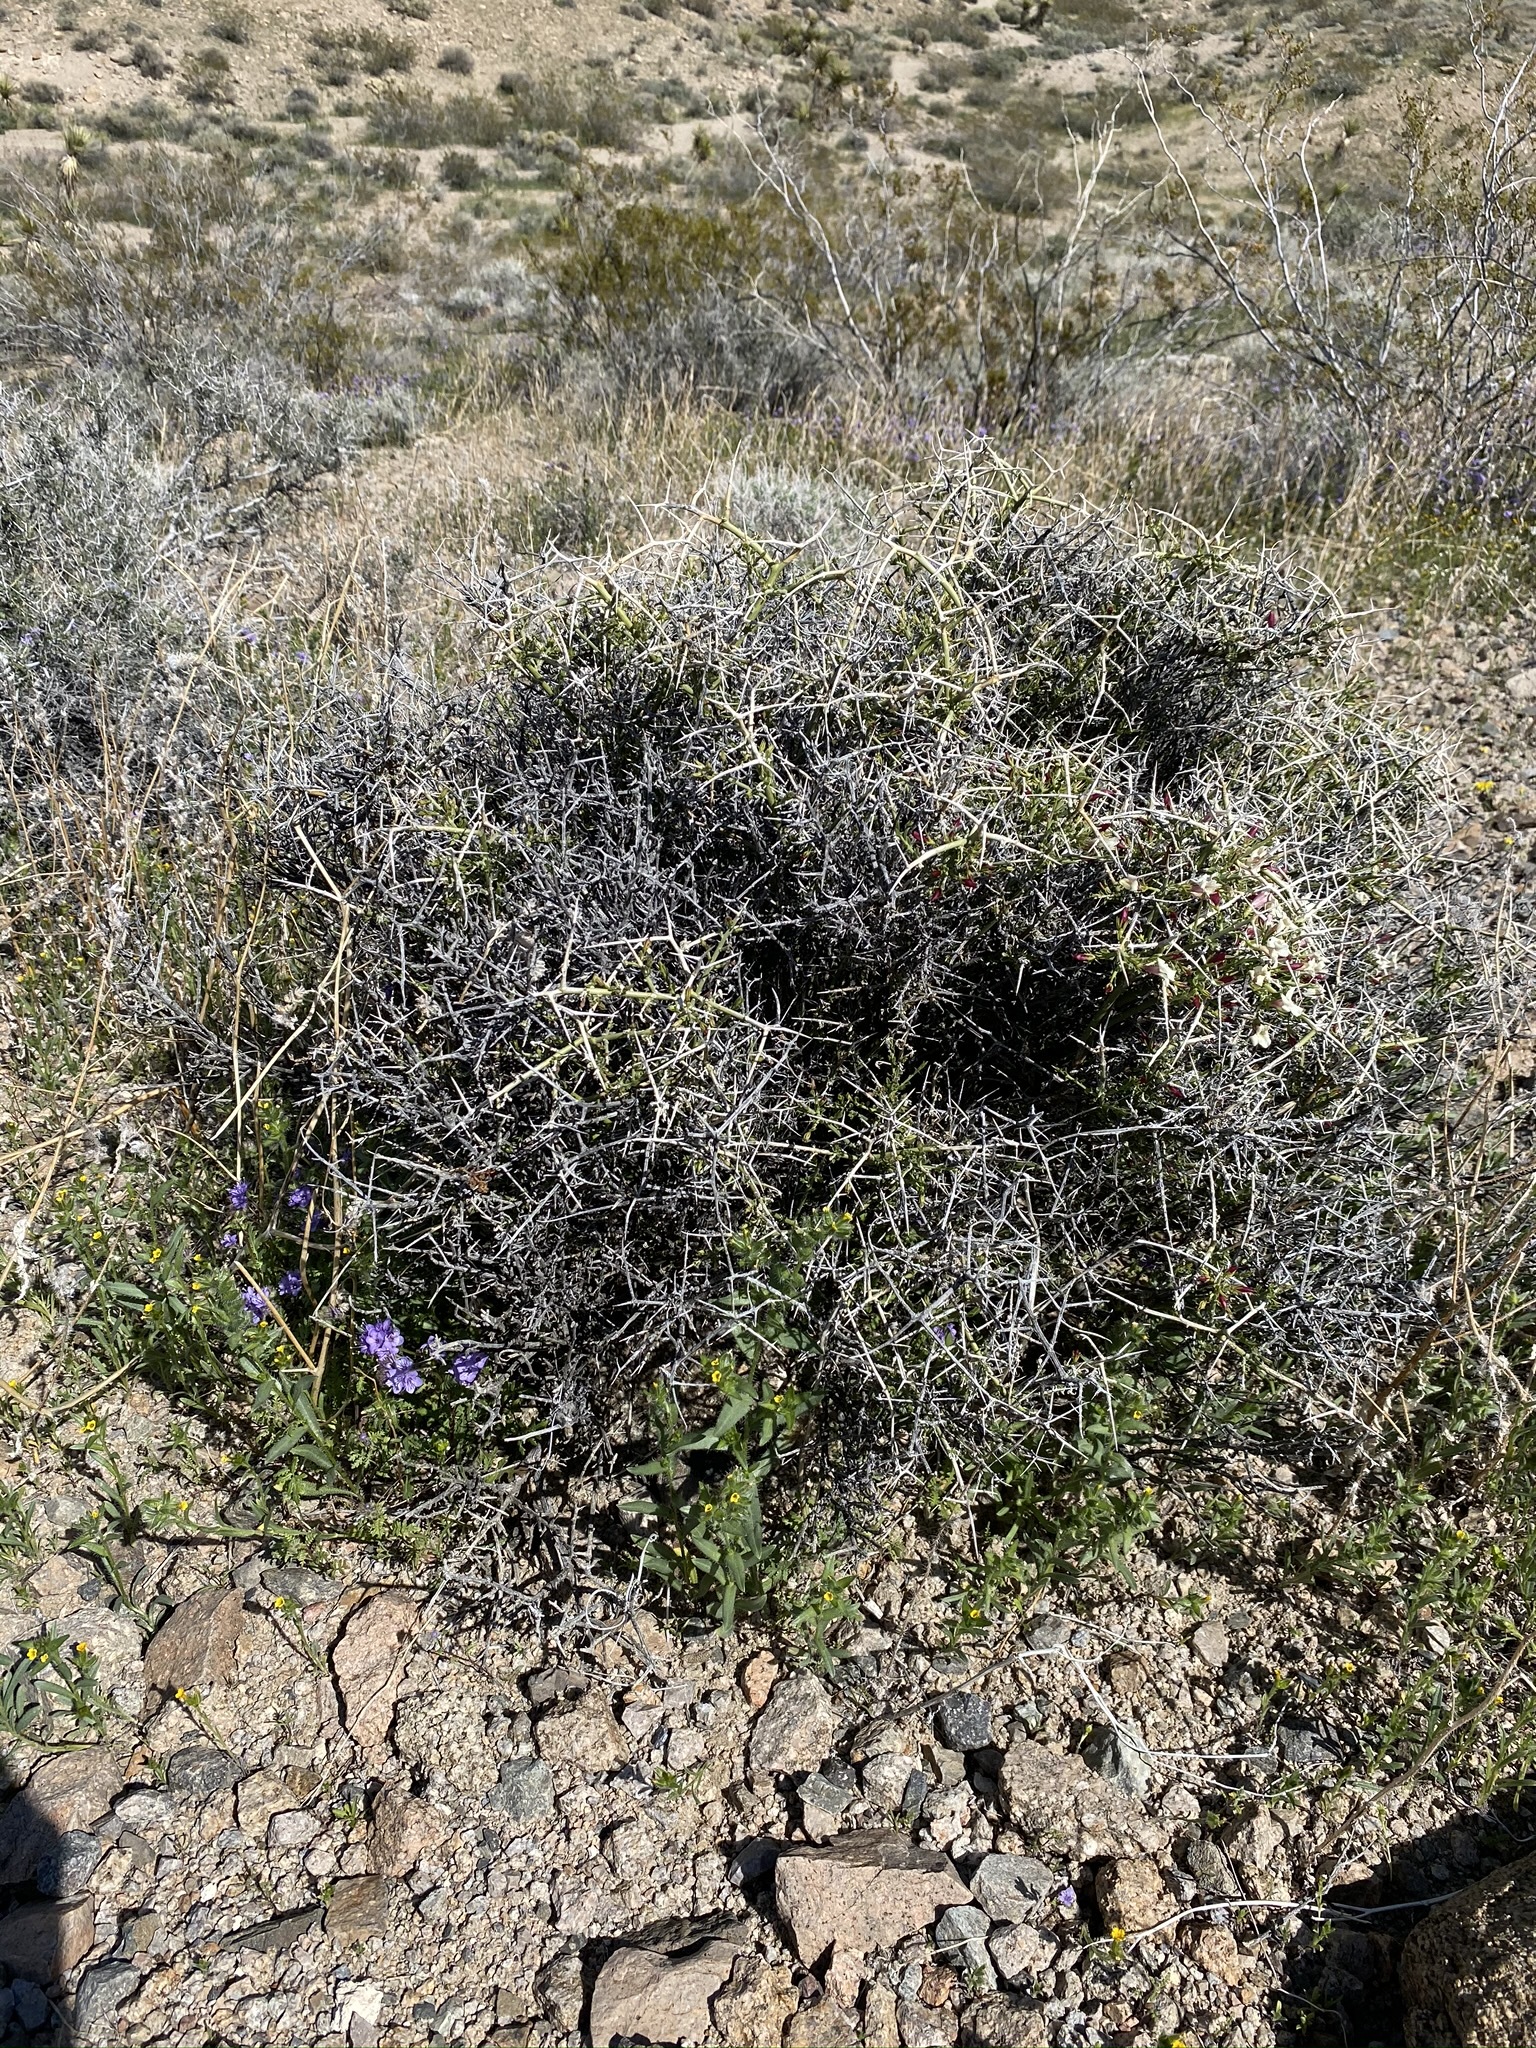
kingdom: Plantae
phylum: Tracheophyta
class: Magnoliopsida
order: Lamiales
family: Oleaceae
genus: Menodora
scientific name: Menodora spinescens
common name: Spiny menodora
